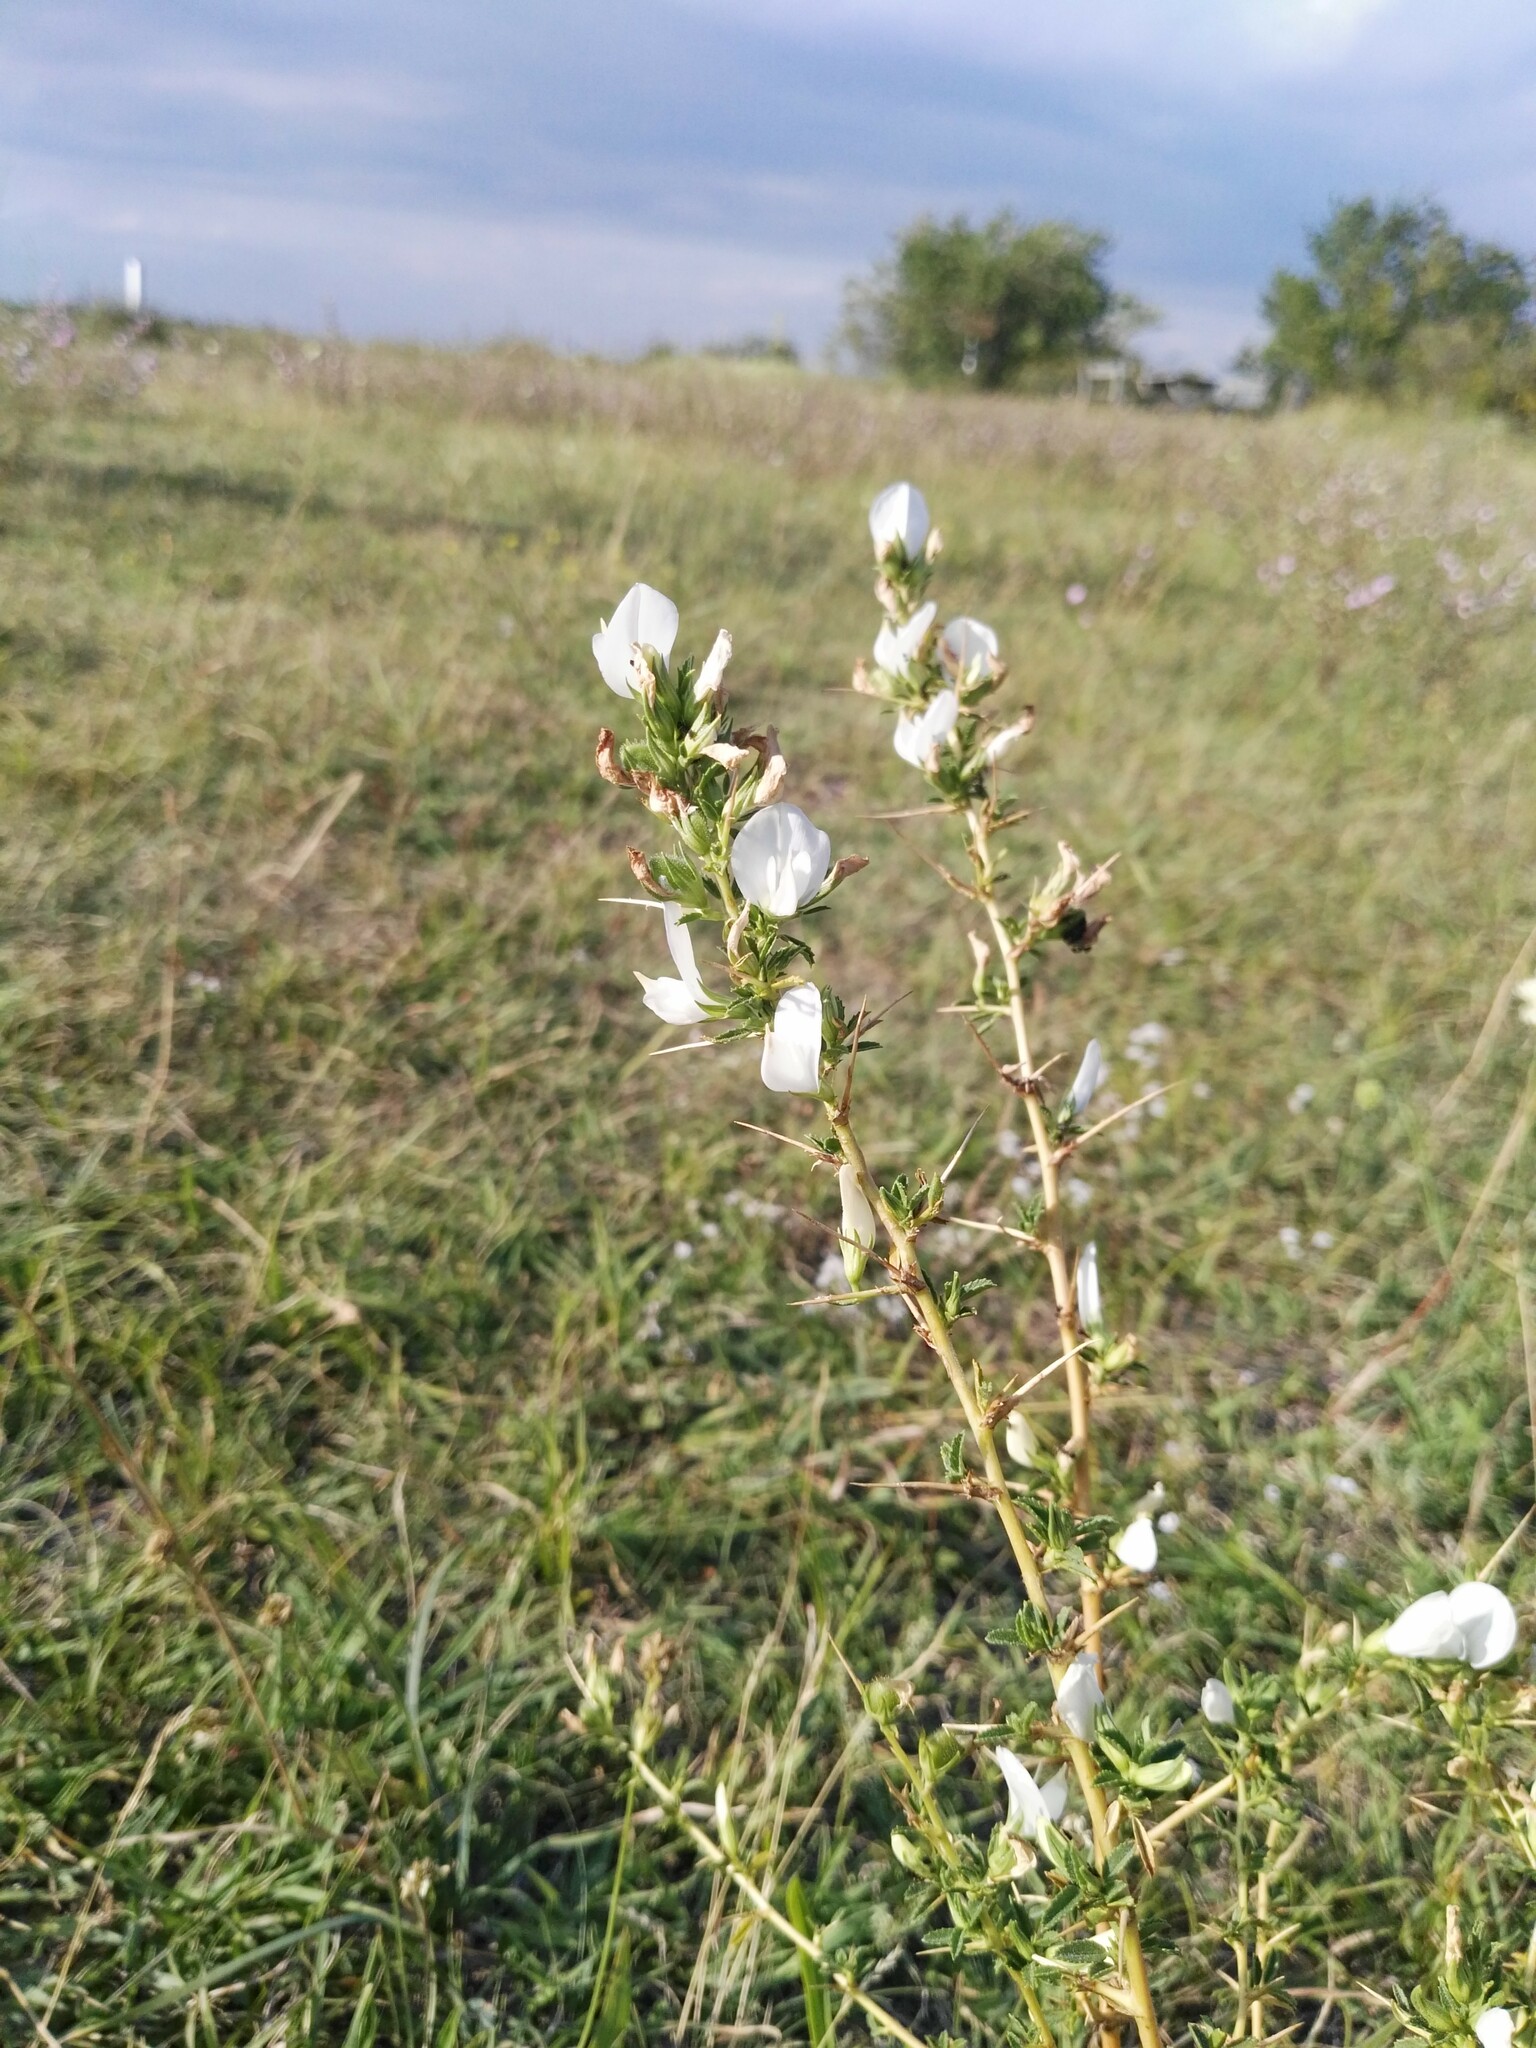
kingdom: Plantae
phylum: Tracheophyta
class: Magnoliopsida
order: Fabales
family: Fabaceae
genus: Ononis
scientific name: Ononis spinosa
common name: Spiny restharrow
